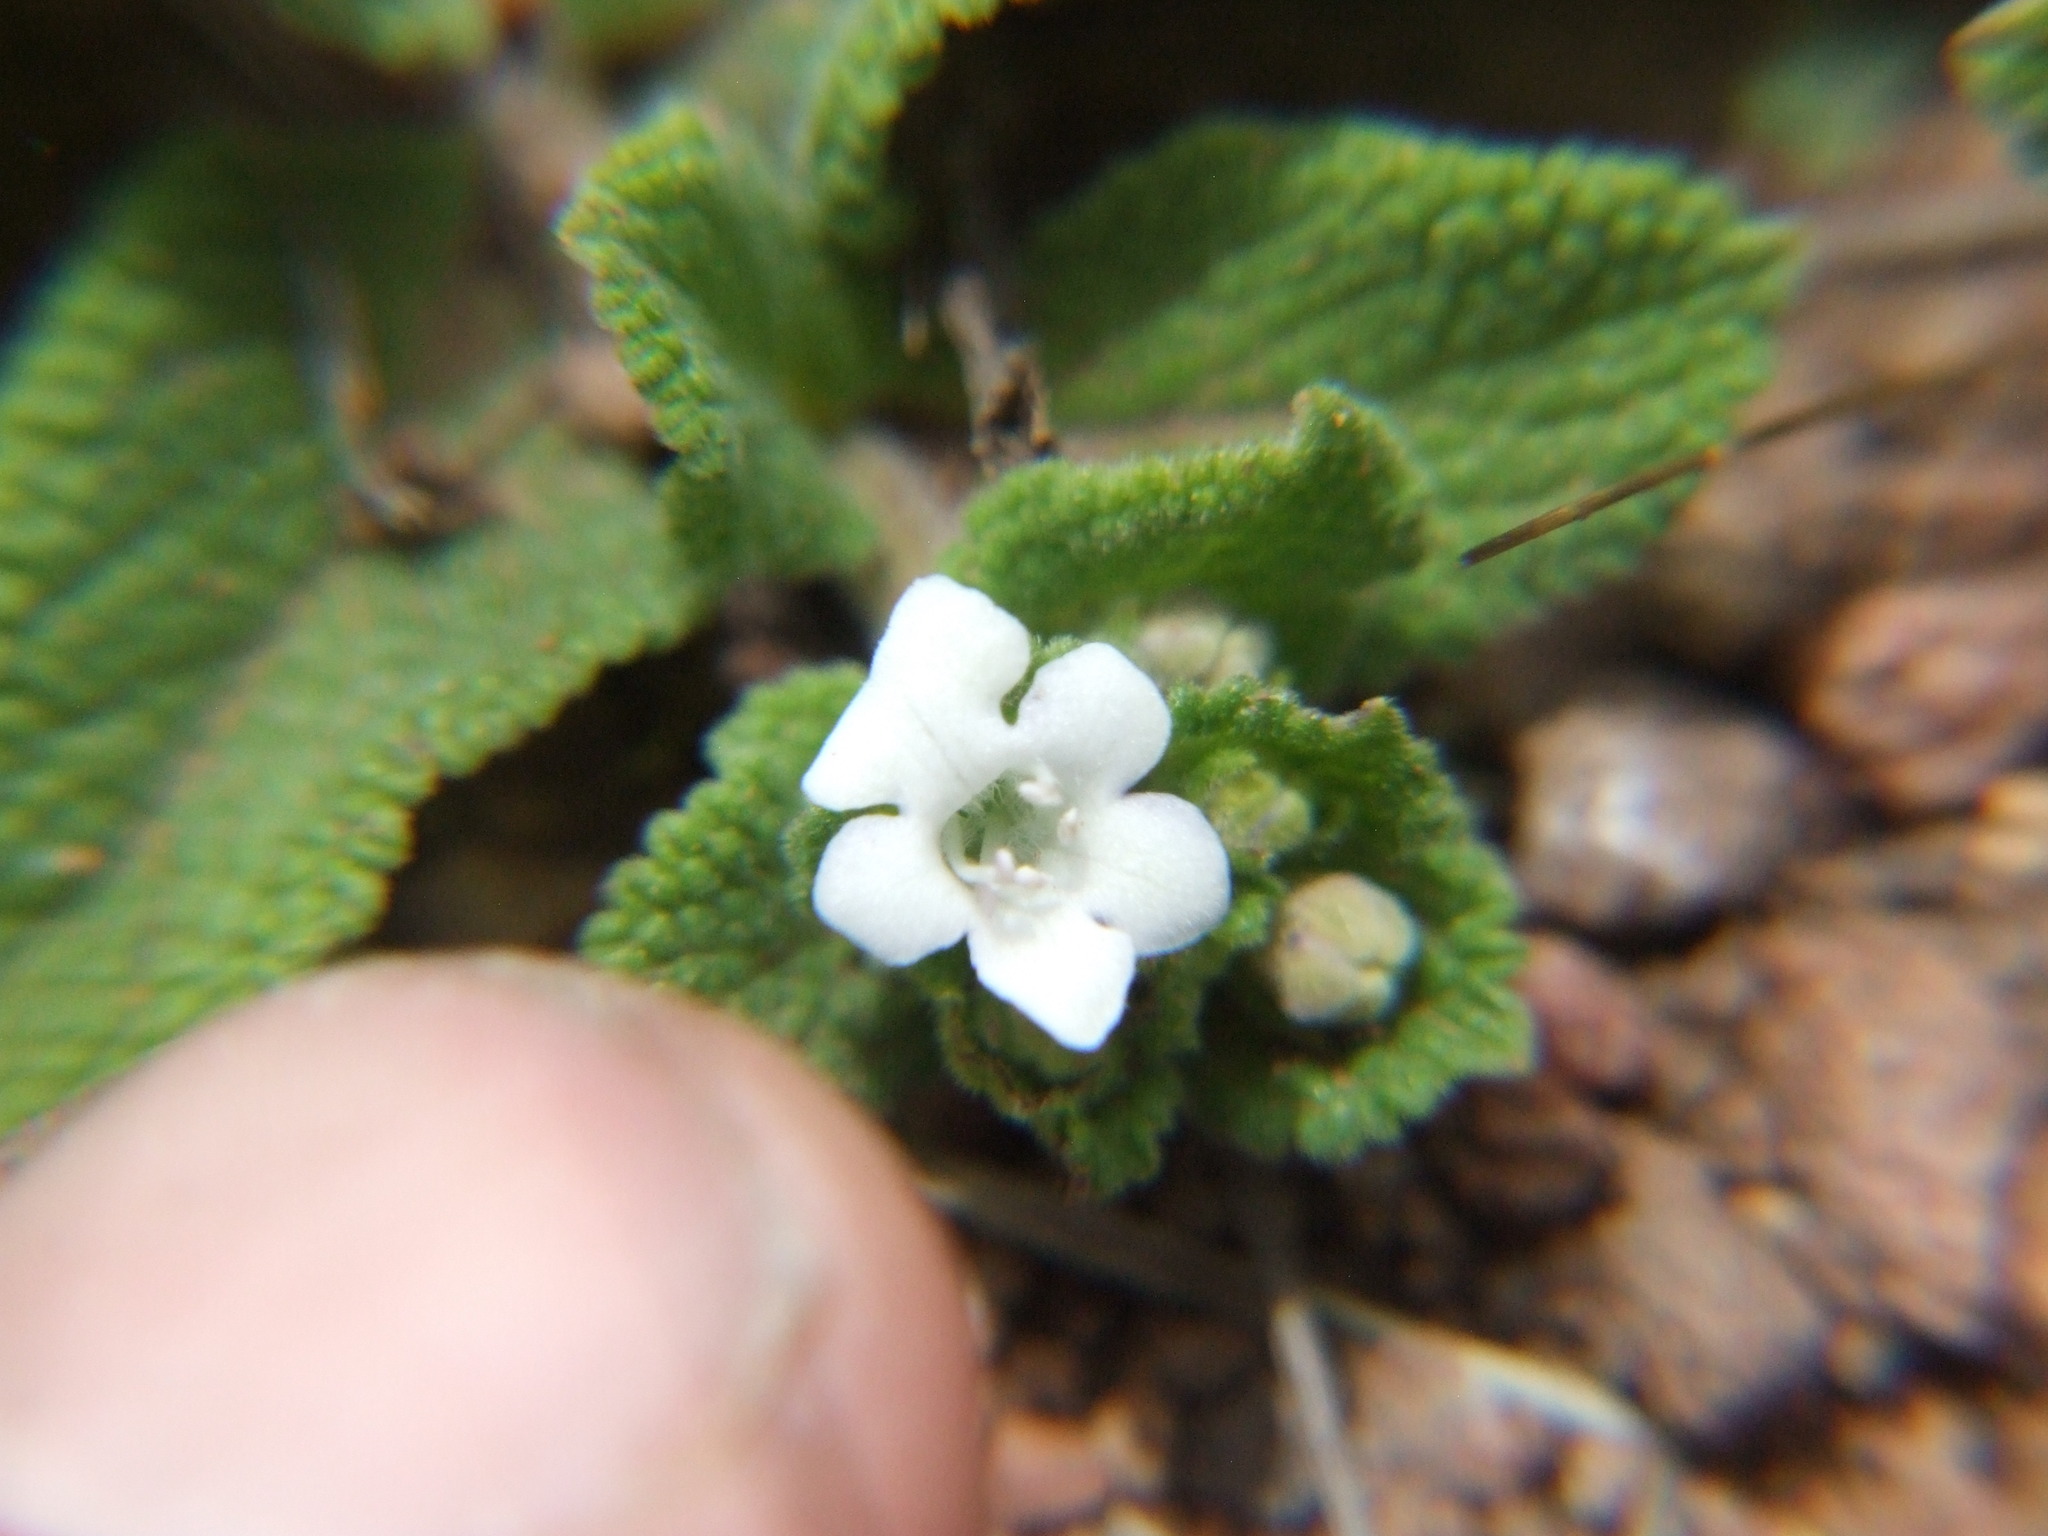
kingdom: Plantae
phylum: Tracheophyta
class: Magnoliopsida
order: Lamiales
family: Lamiaceae
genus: Lepechinia
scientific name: Lepechinia meyenii
